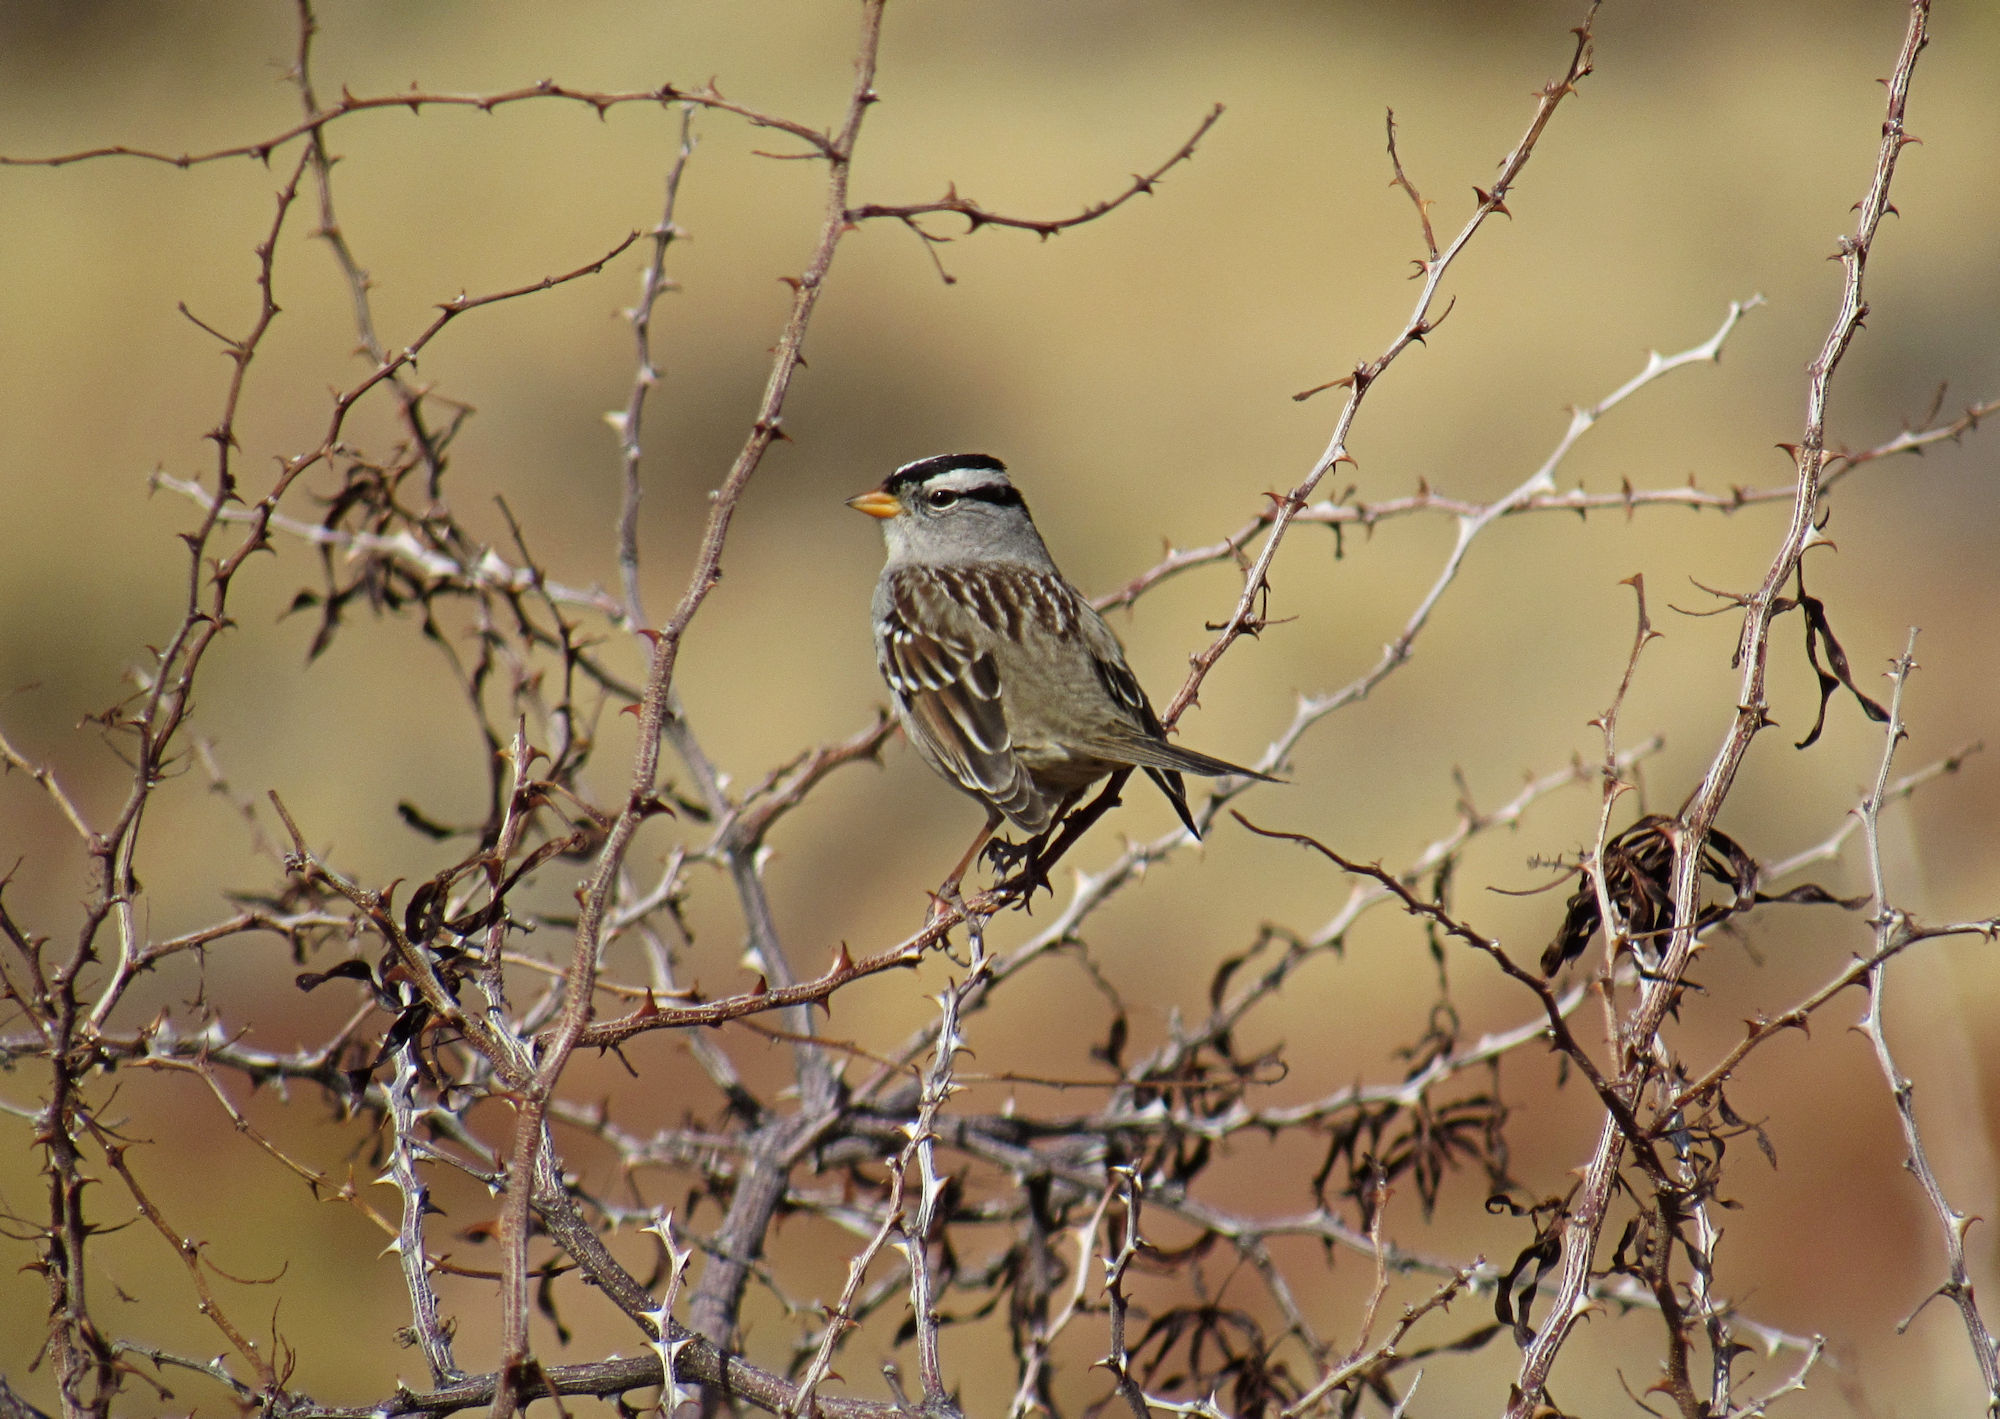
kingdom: Animalia
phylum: Chordata
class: Aves
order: Passeriformes
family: Passerellidae
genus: Zonotrichia
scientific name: Zonotrichia leucophrys
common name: White-crowned sparrow
